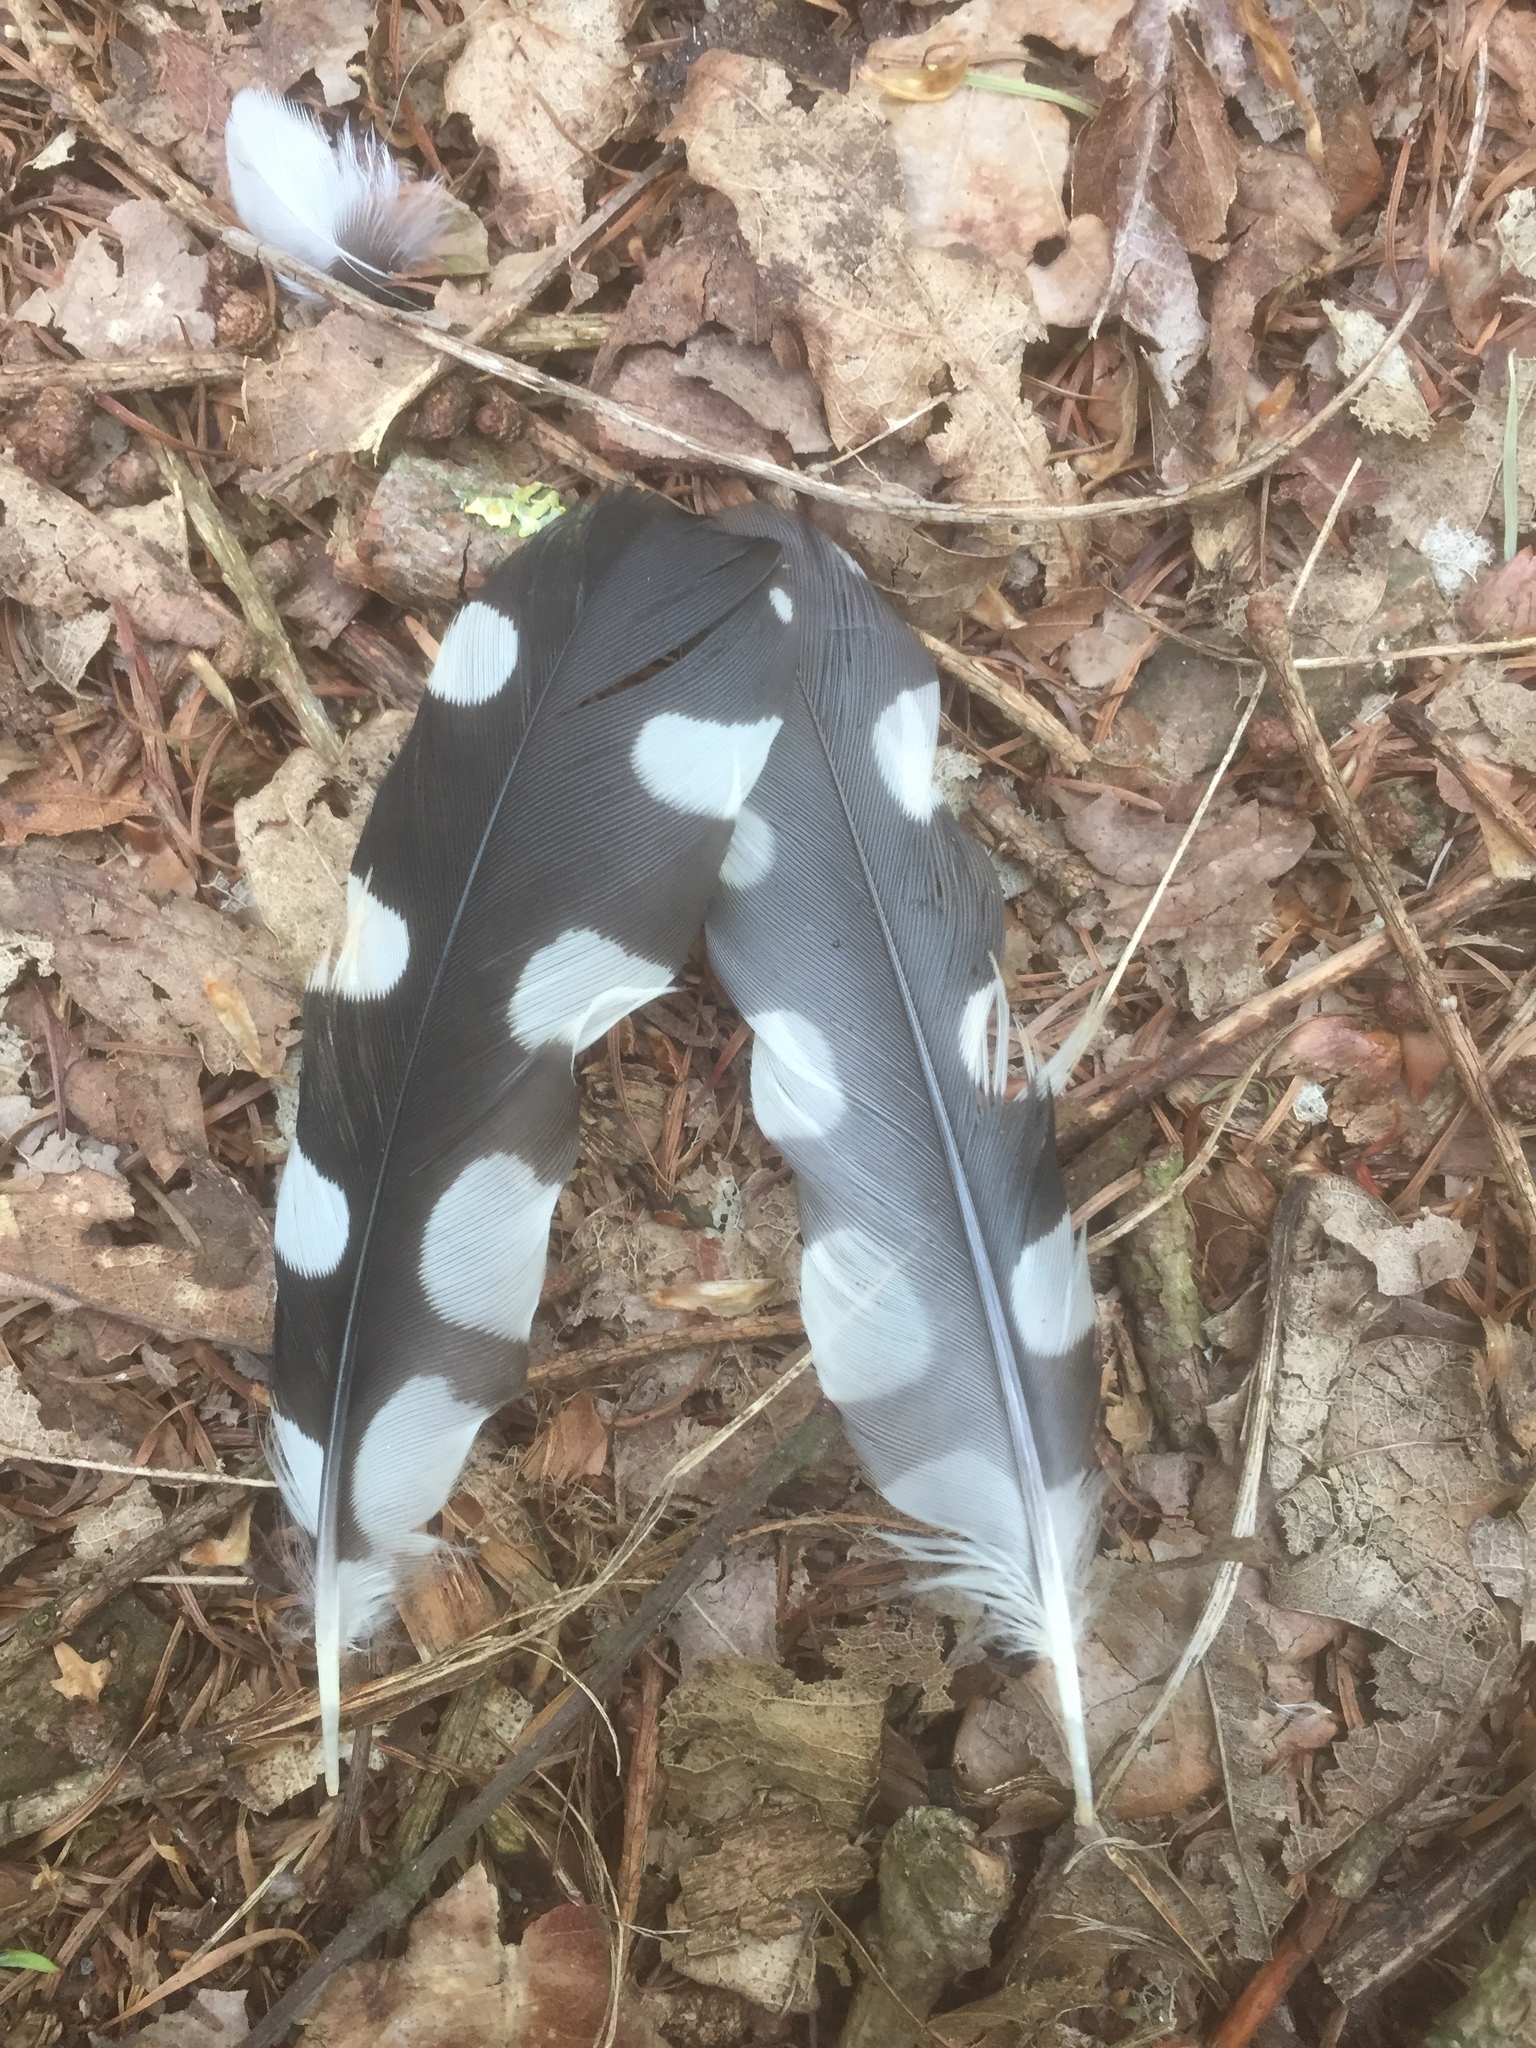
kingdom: Animalia
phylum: Chordata
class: Aves
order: Piciformes
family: Picidae
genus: Dendrocopos
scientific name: Dendrocopos major
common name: Great spotted woodpecker
